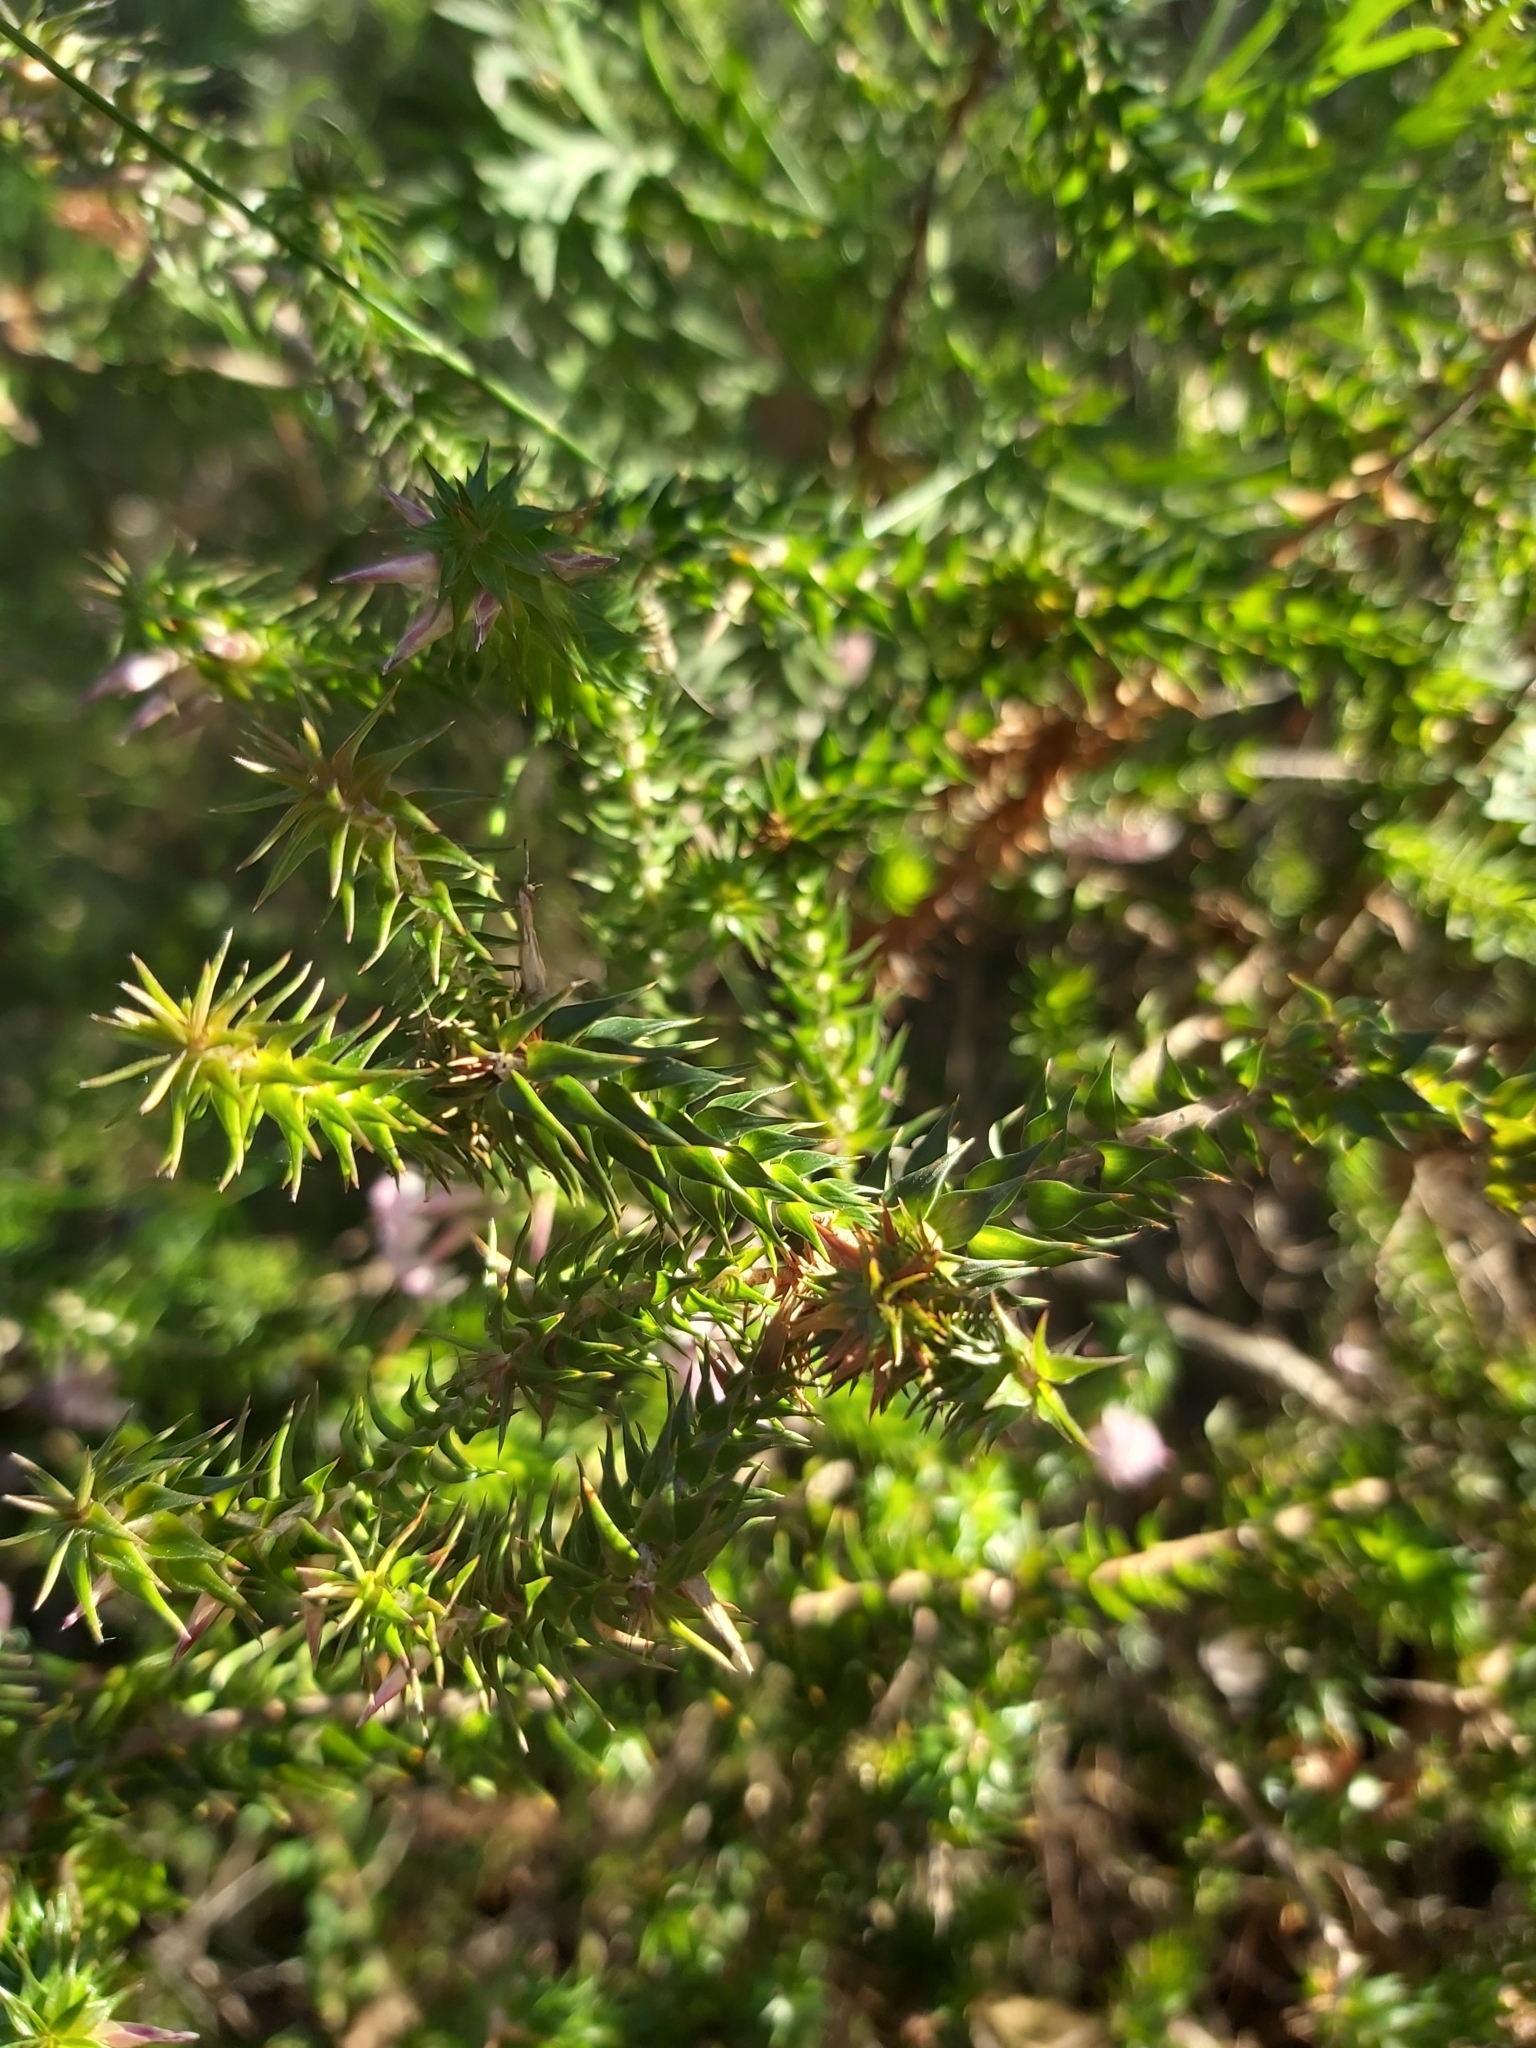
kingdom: Plantae
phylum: Tracheophyta
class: Magnoliopsida
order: Ericales
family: Ericaceae
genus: Woollsia
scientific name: Woollsia pungens
